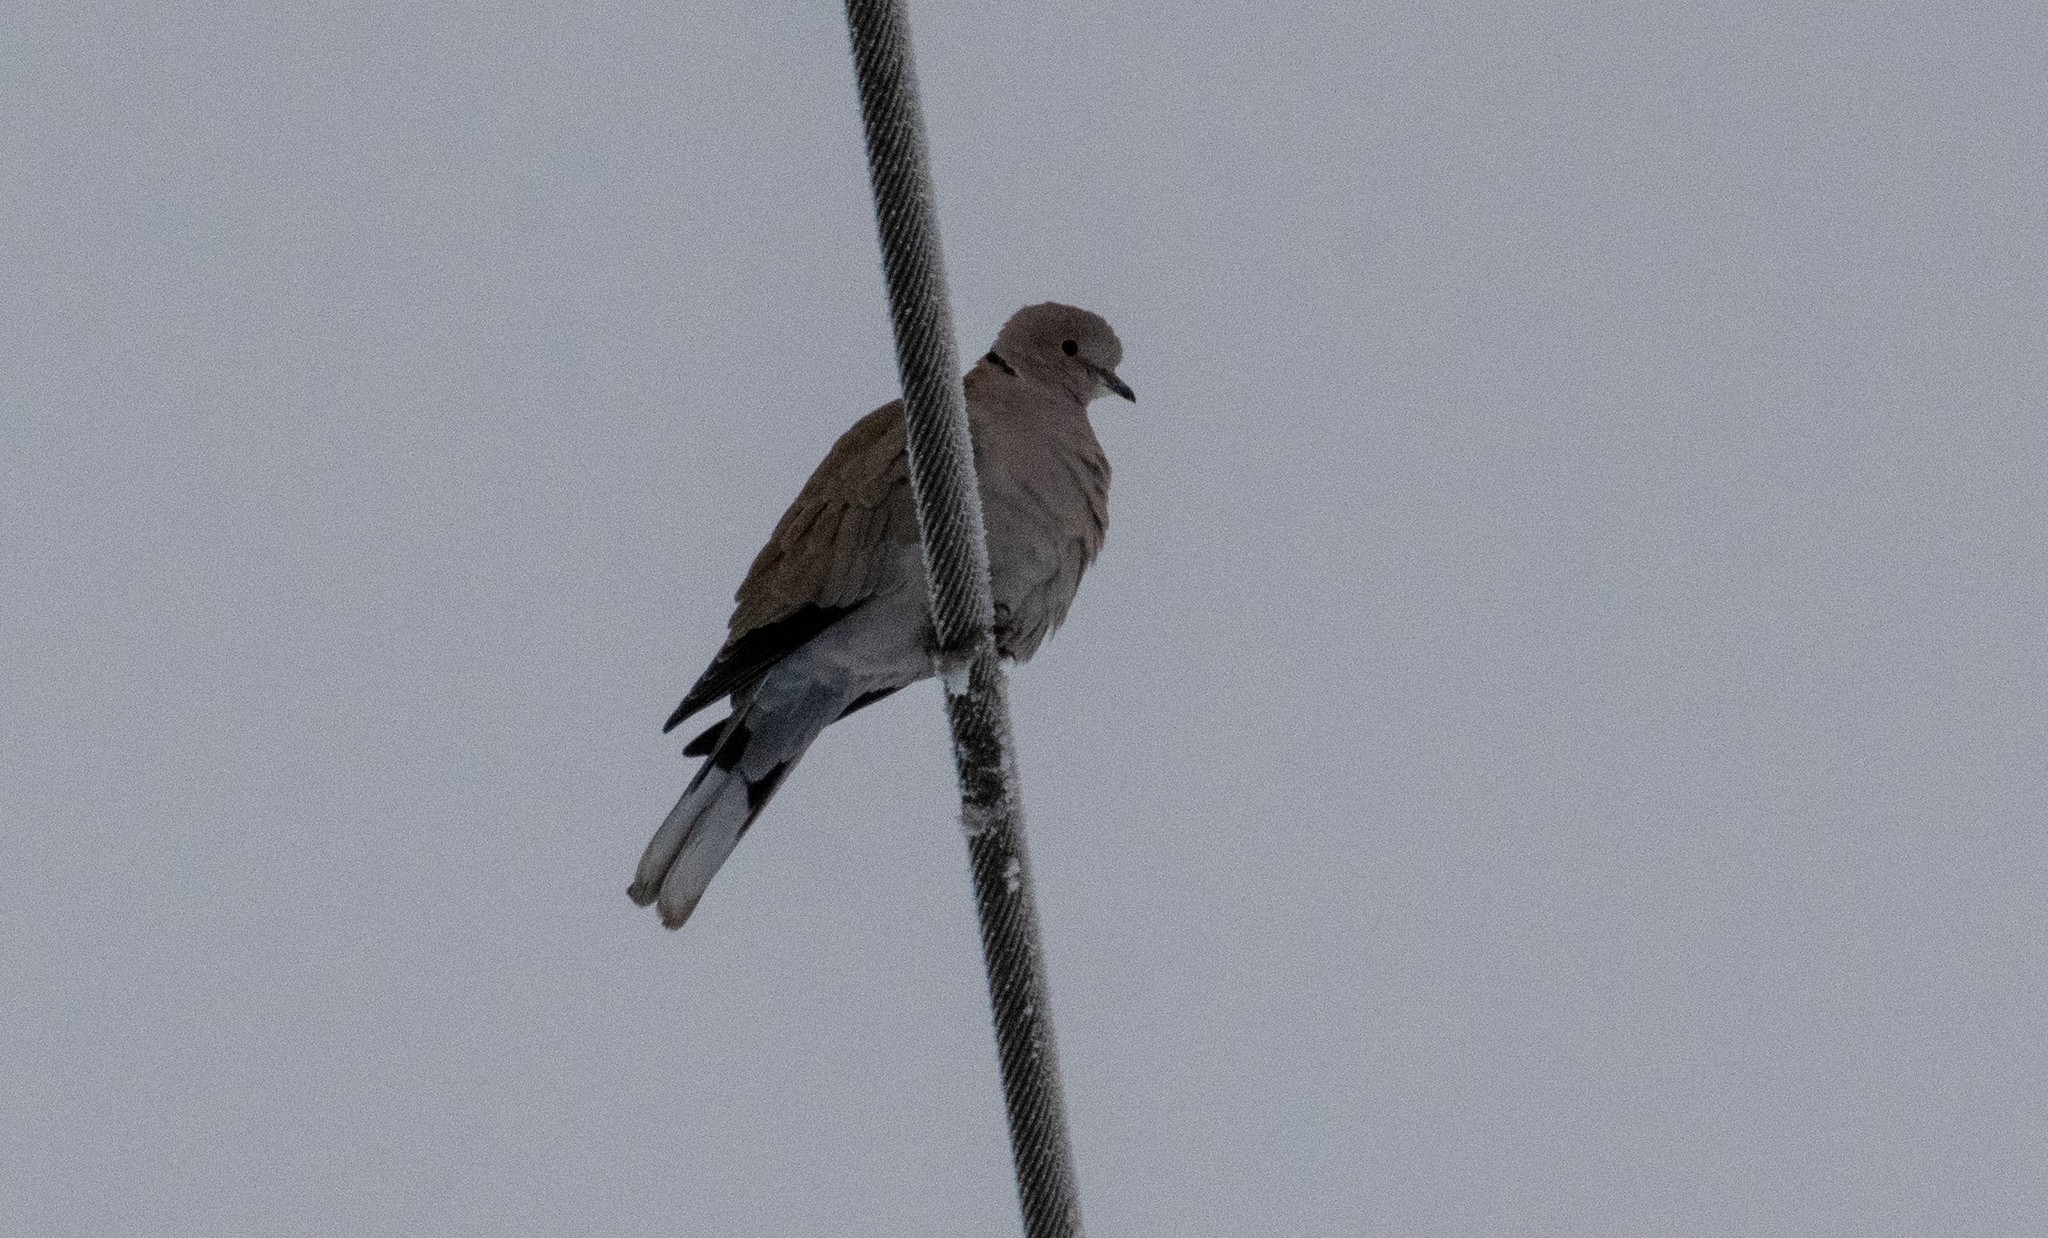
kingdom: Animalia
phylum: Chordata
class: Aves
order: Columbiformes
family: Columbidae
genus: Streptopelia
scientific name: Streptopelia decaocto
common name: Eurasian collared dove
